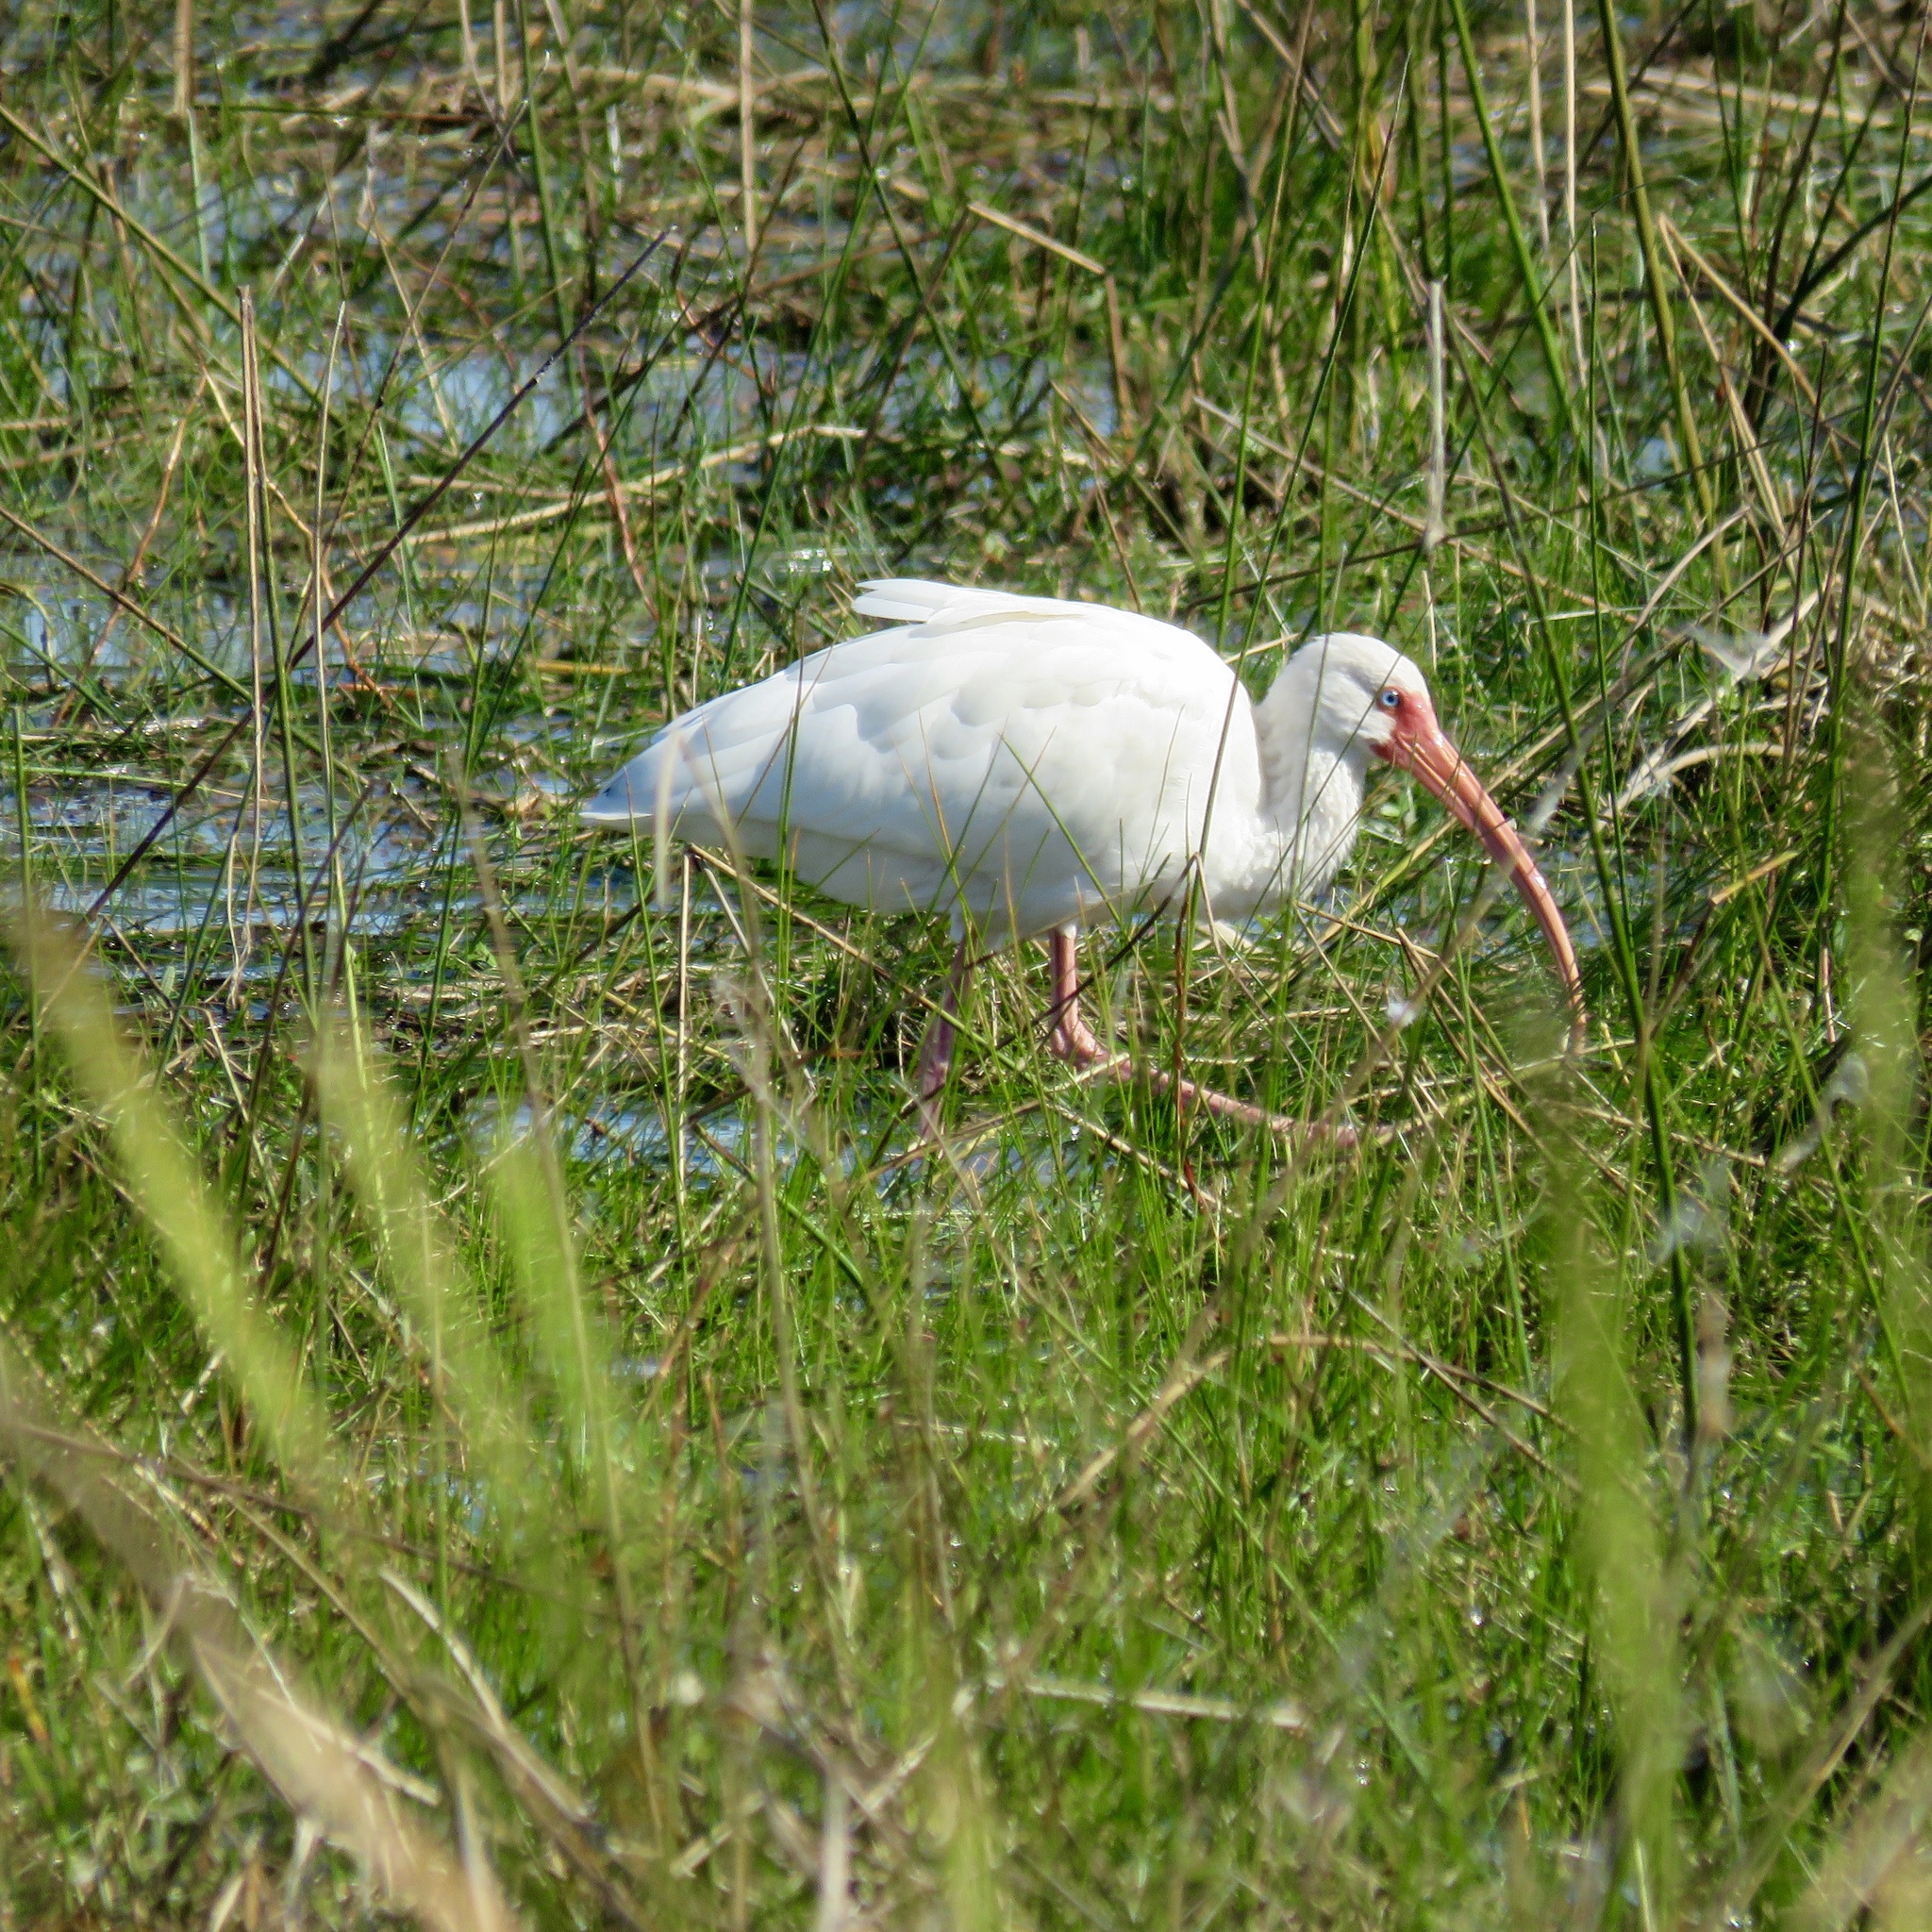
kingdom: Animalia
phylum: Chordata
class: Aves
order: Pelecaniformes
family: Threskiornithidae
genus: Eudocimus
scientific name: Eudocimus albus
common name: White ibis
